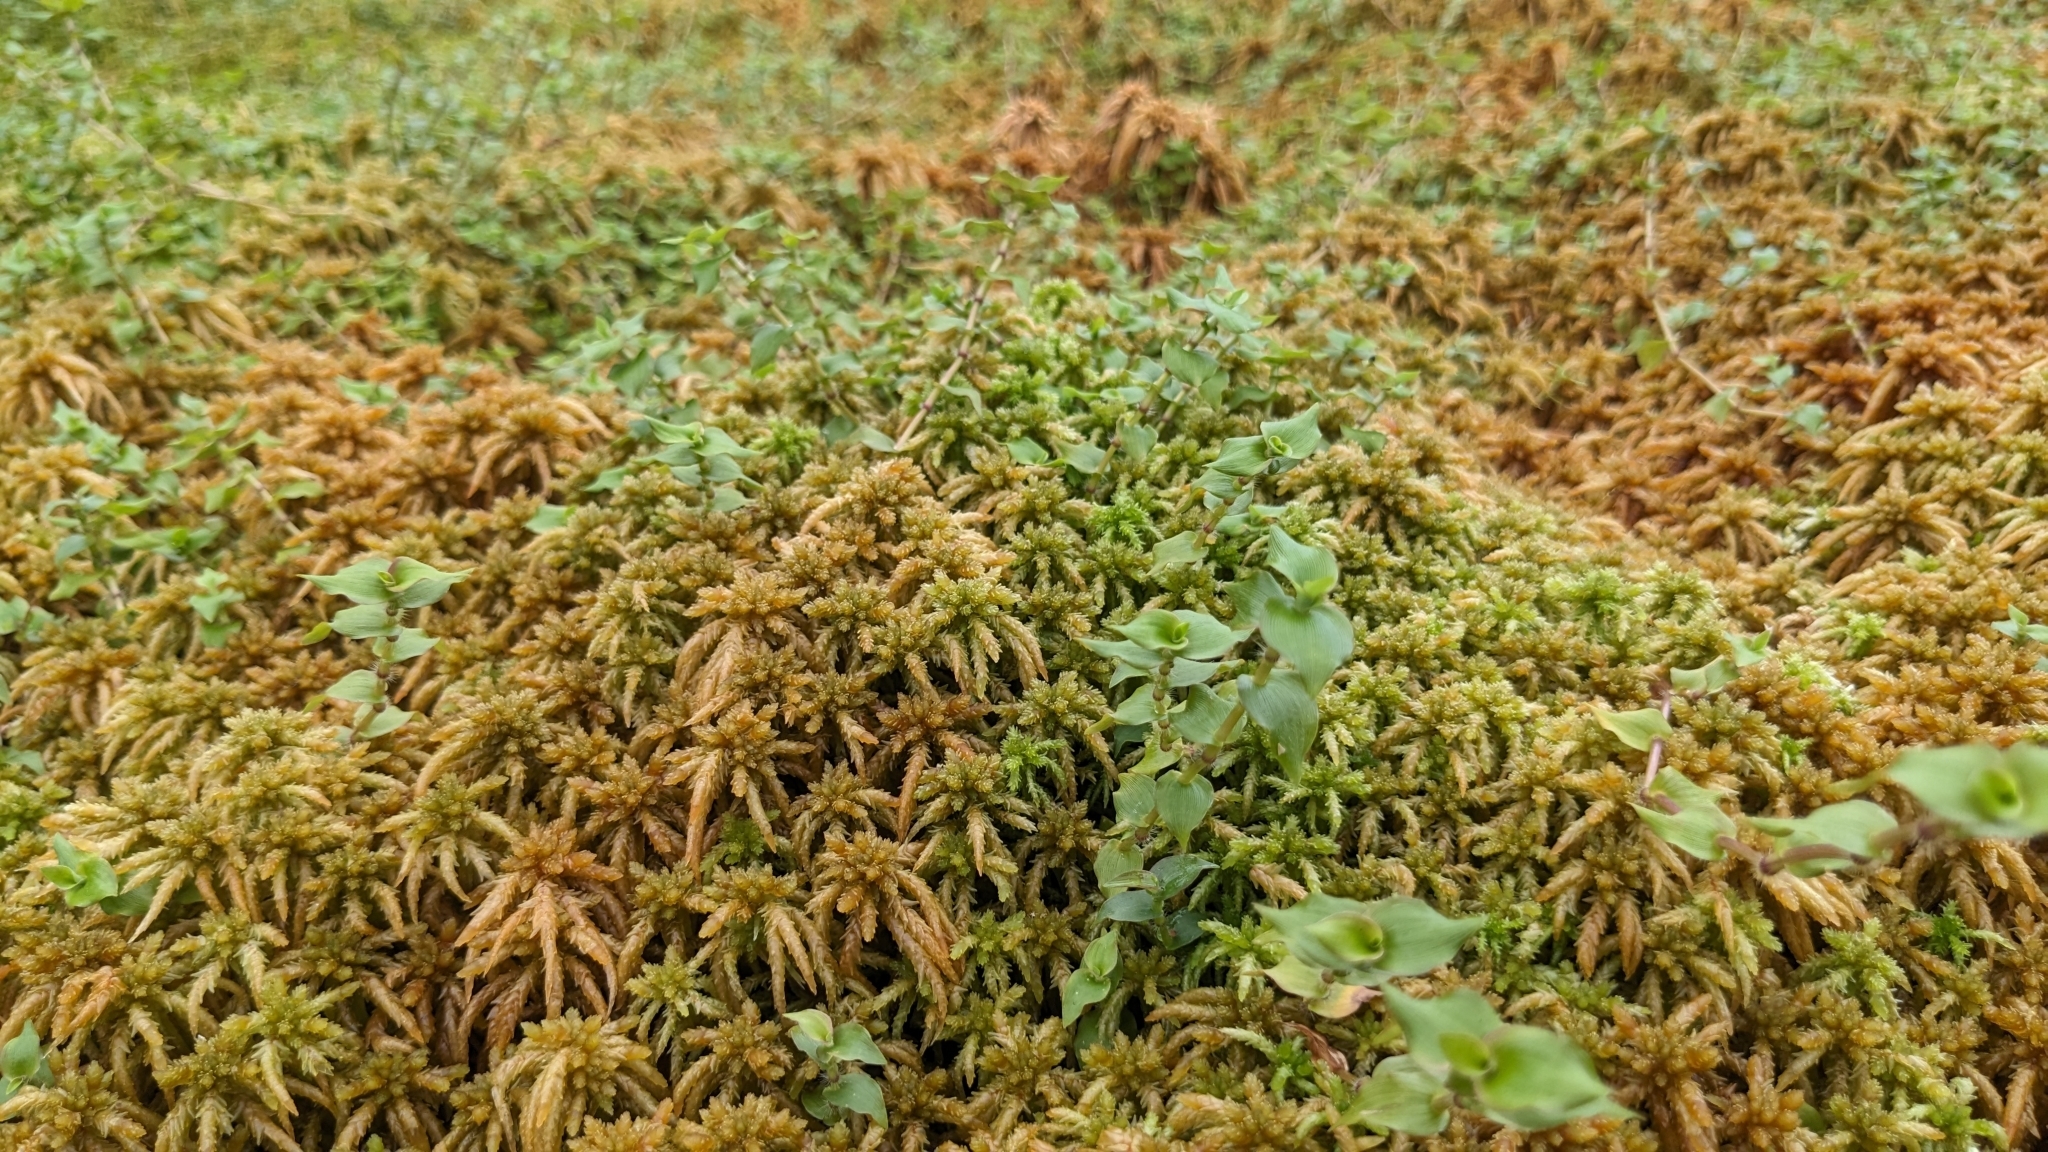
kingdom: Plantae
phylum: Tracheophyta
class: Liliopsida
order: Poales
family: Poaceae
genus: Sphaerocaryum
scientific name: Sphaerocaryum malaccense
